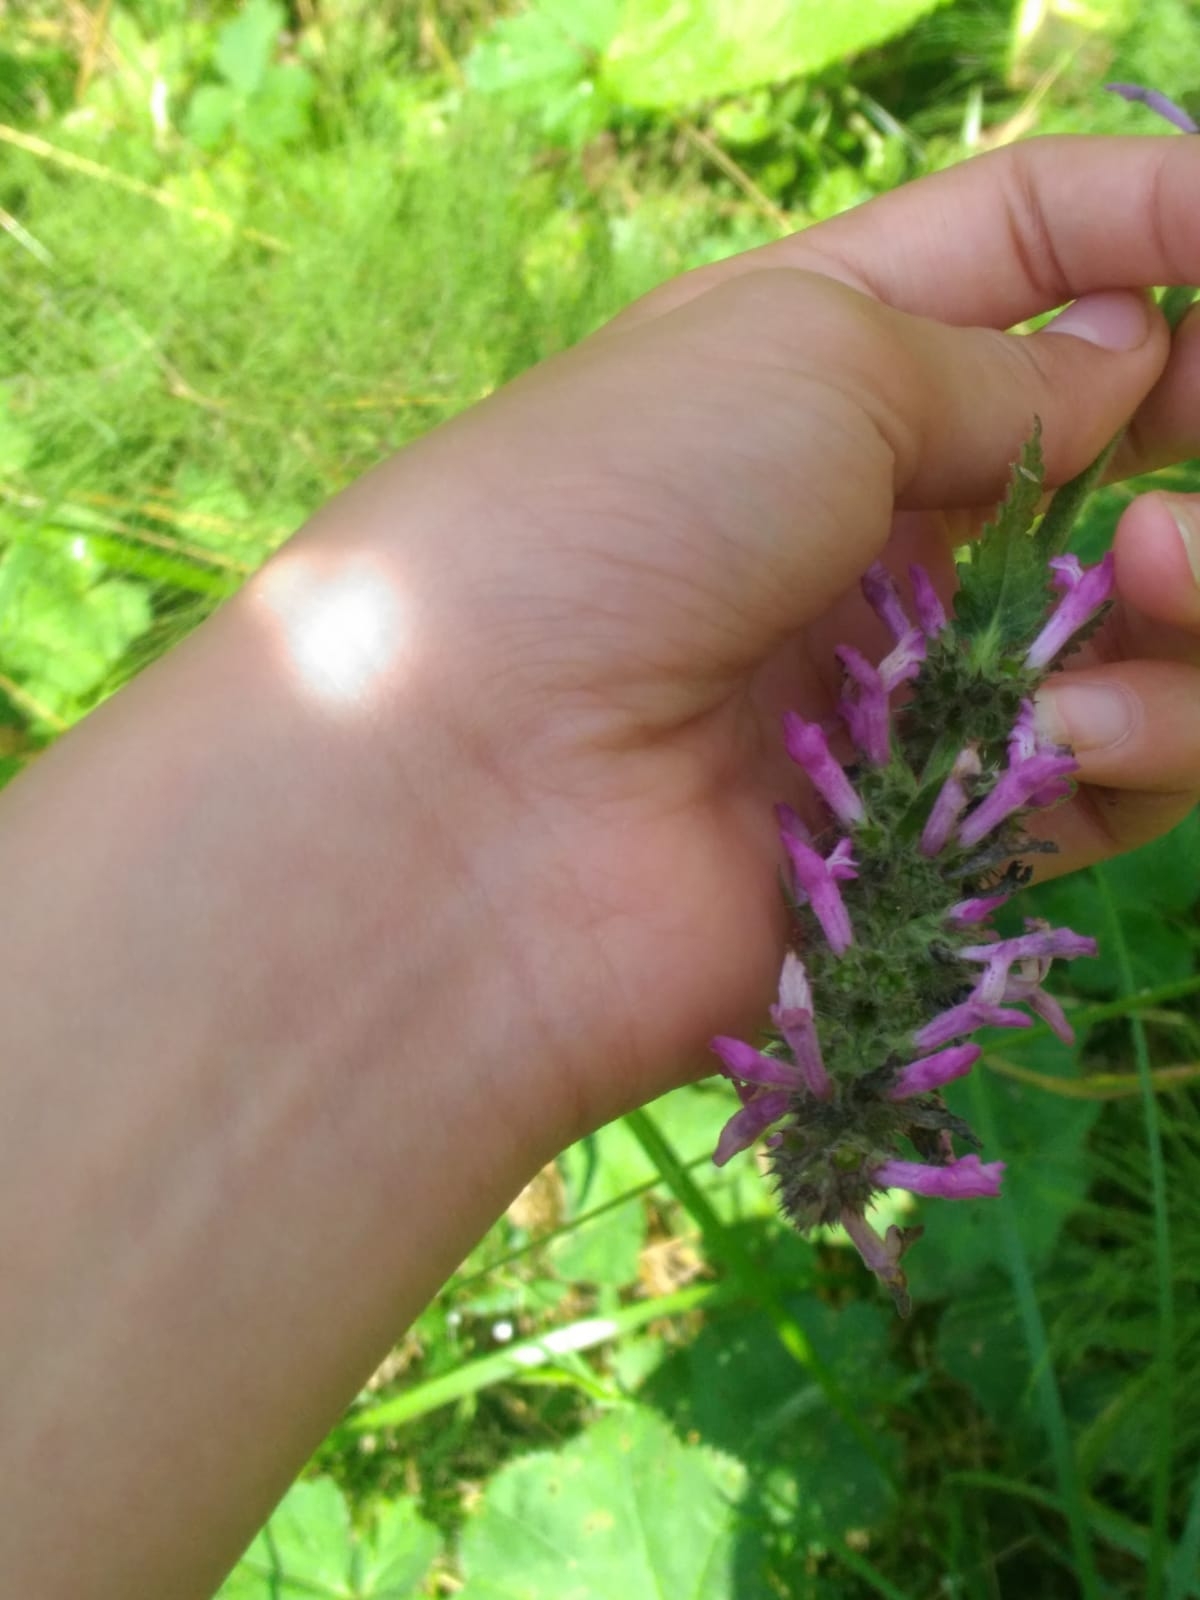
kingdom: Plantae
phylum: Tracheophyta
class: Magnoliopsida
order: Lamiales
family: Lamiaceae
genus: Betonica
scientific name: Betonica officinalis
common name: Bishop's-wort
